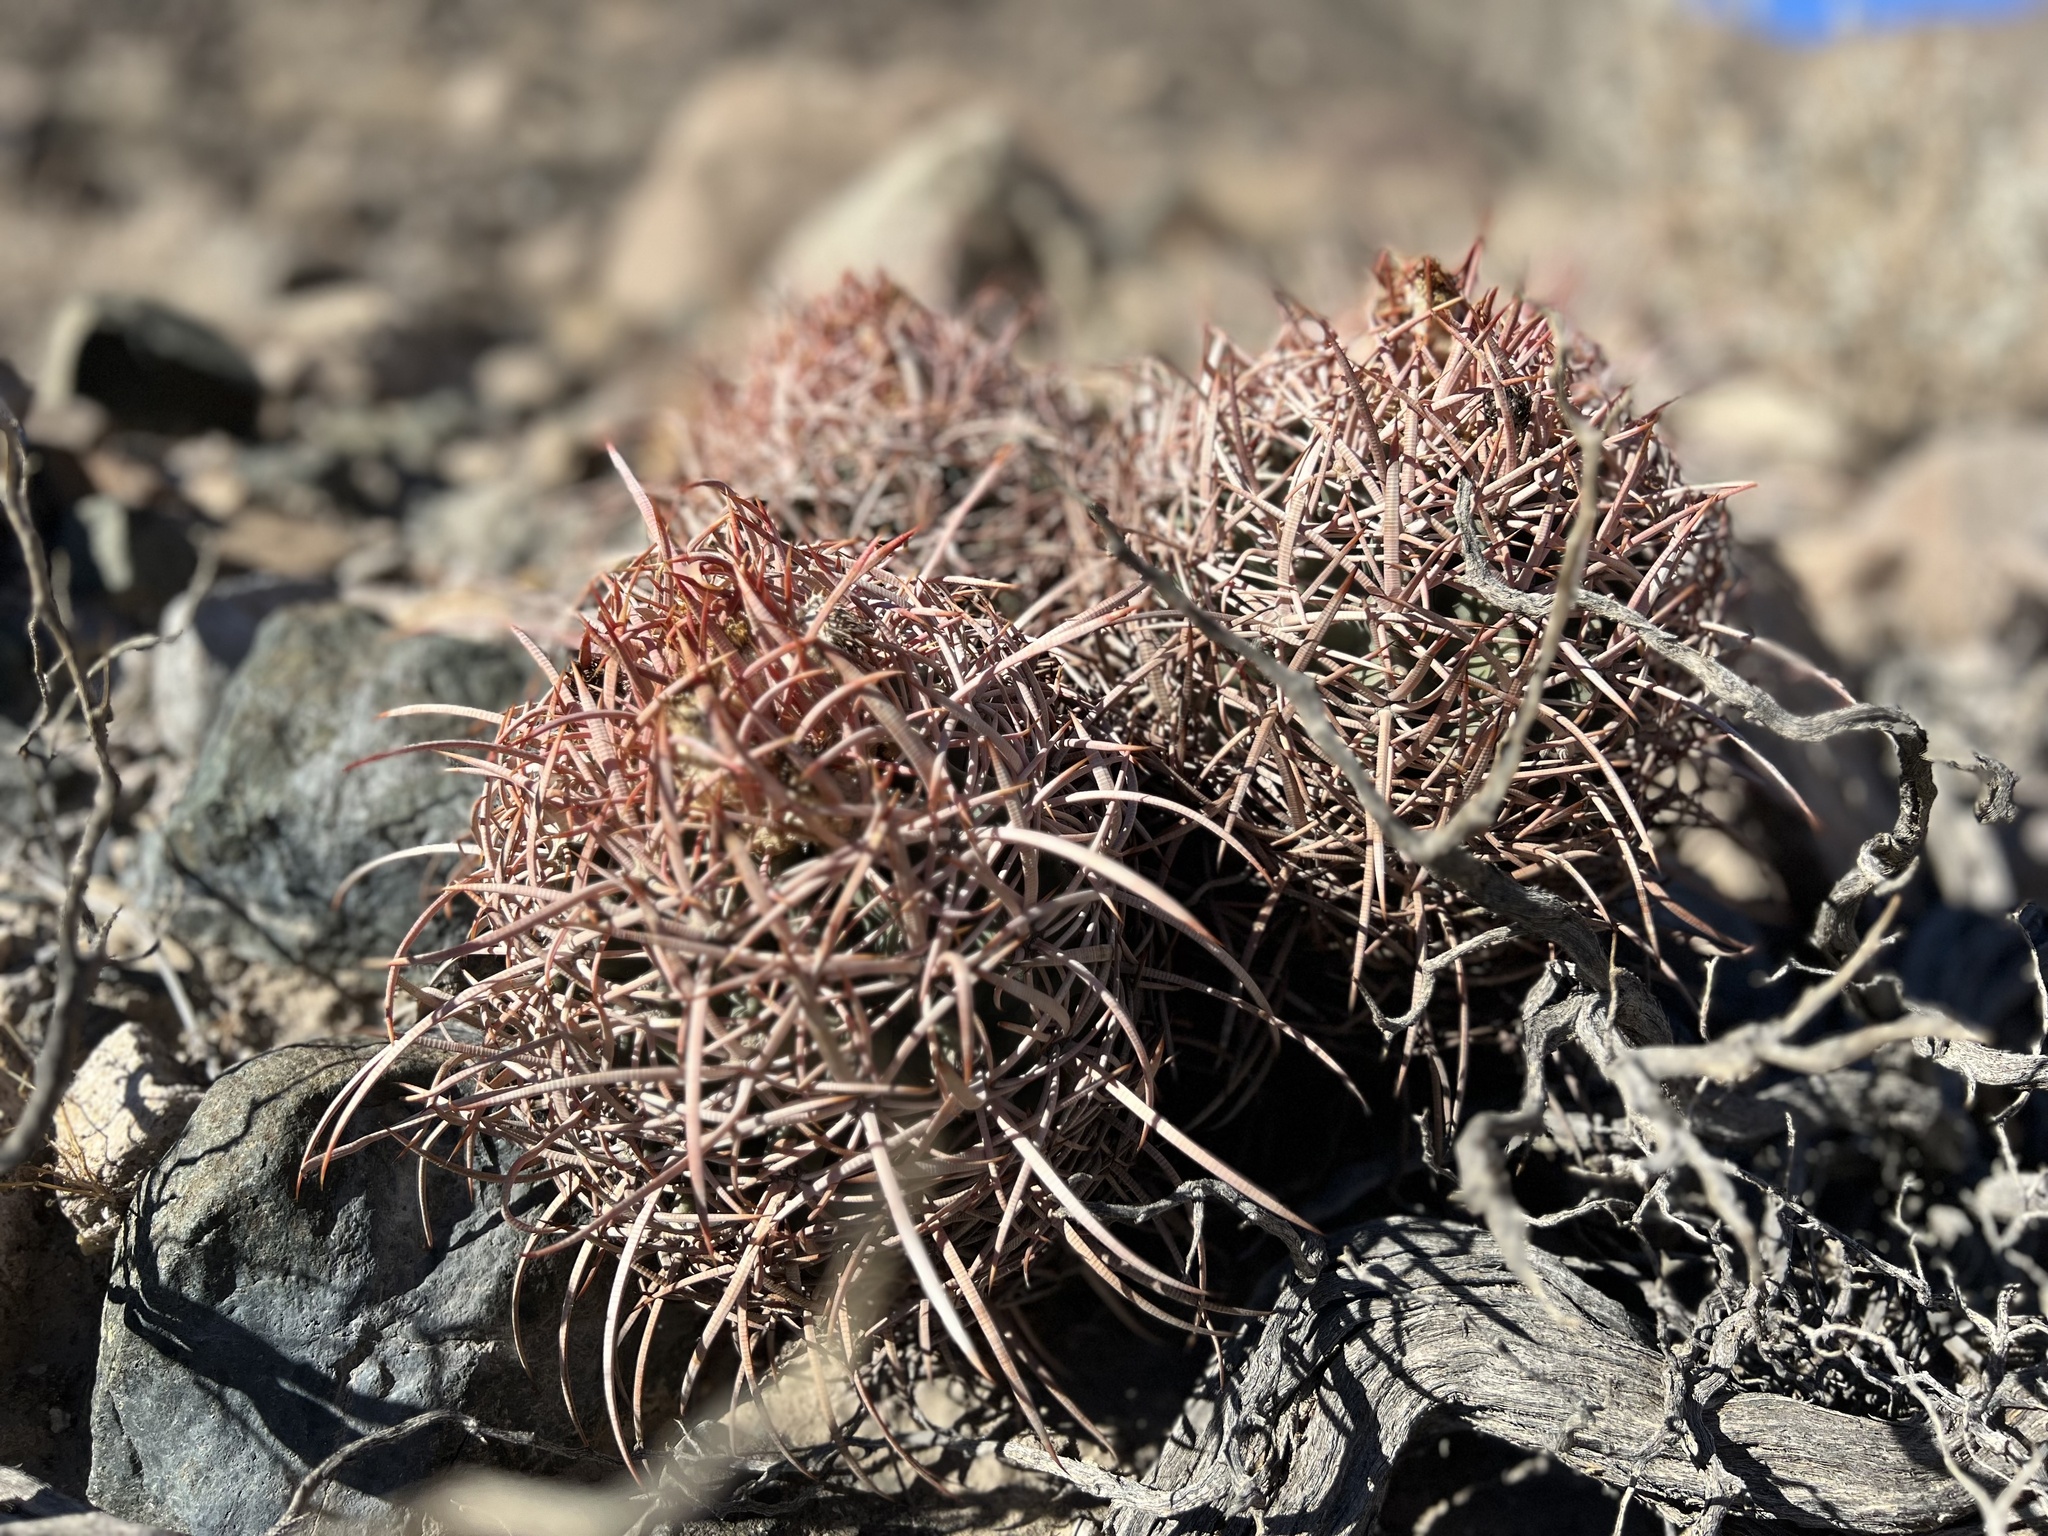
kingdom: Plantae
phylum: Tracheophyta
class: Magnoliopsida
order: Caryophyllales
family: Cactaceae
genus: Echinocactus
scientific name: Echinocactus polycephalus
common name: Cottontop cactus
